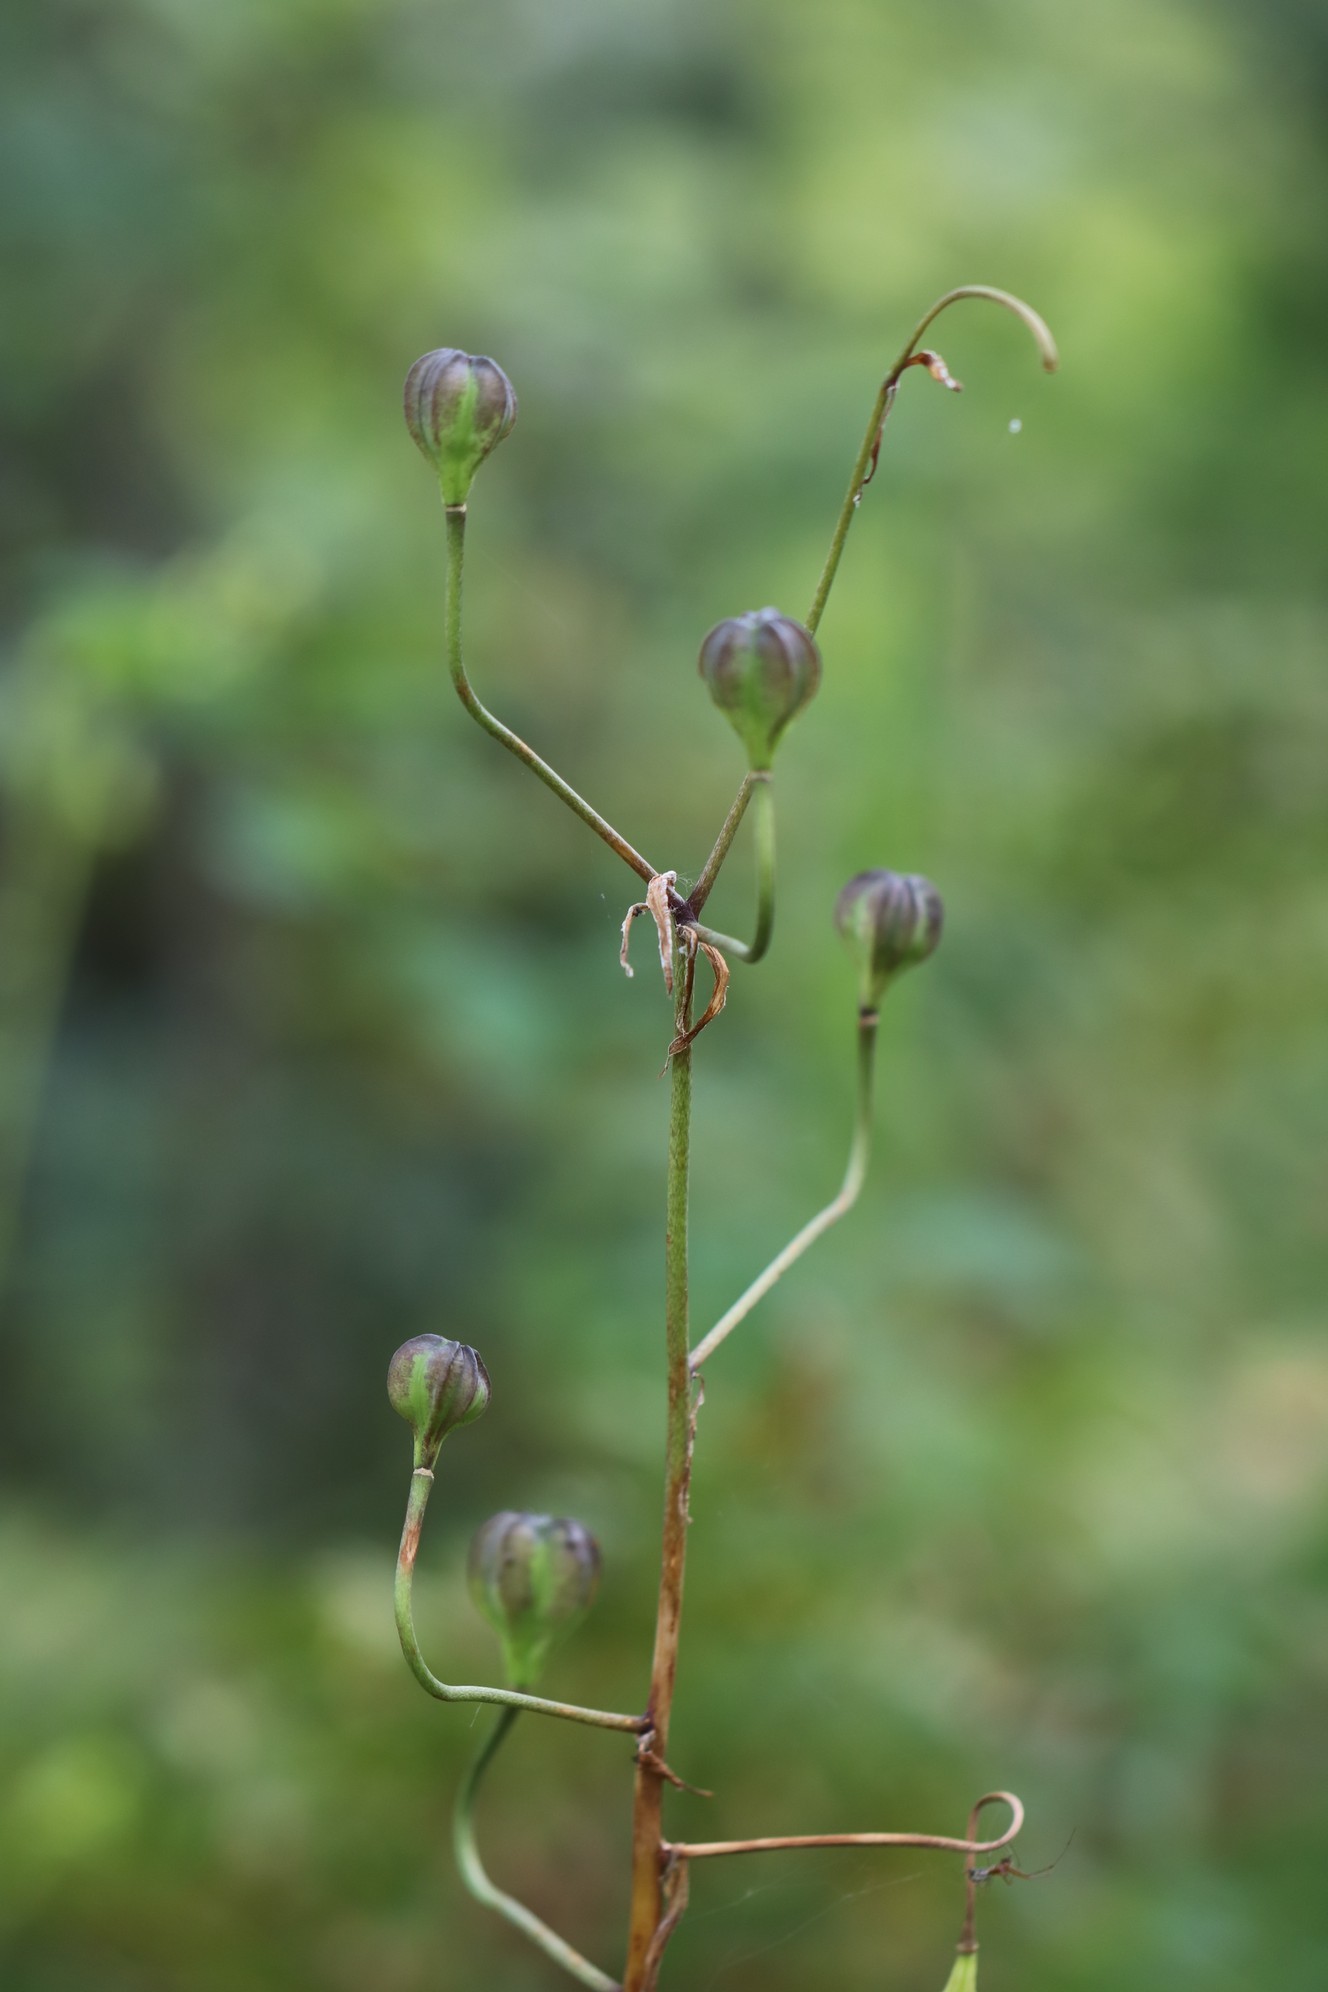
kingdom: Plantae
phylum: Tracheophyta
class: Liliopsida
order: Liliales
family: Liliaceae
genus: Lilium
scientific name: Lilium martagon
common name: Martagon lily
